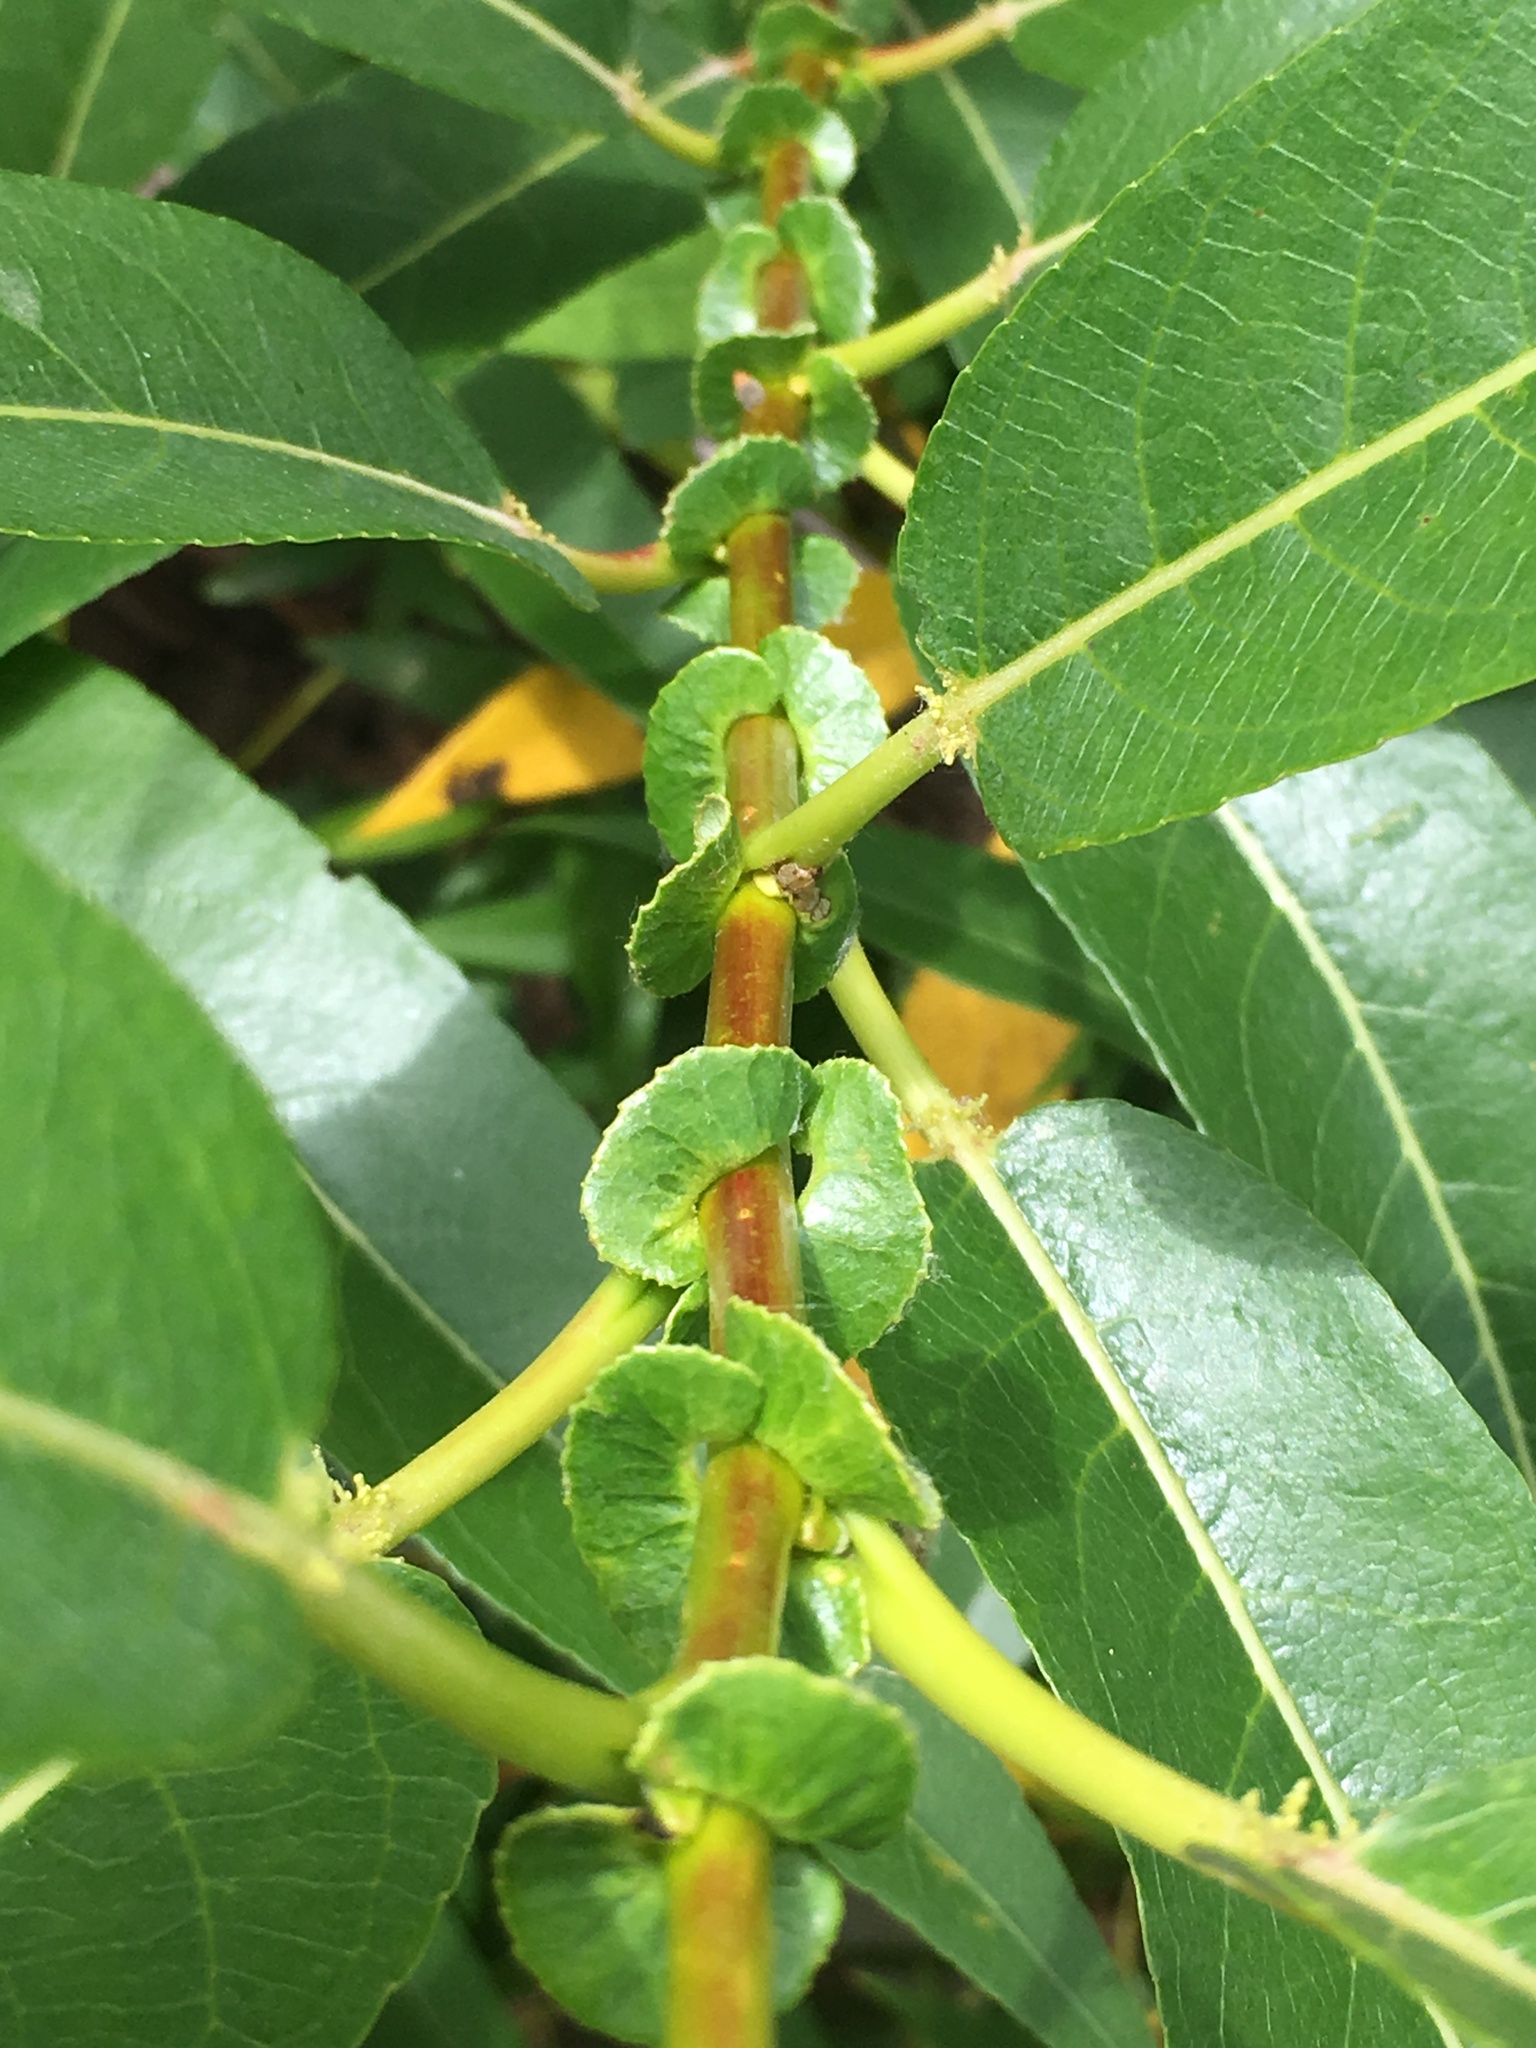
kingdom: Plantae
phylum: Tracheophyta
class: Magnoliopsida
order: Malpighiales
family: Salicaceae
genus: Salix
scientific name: Salix lucida
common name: Shining willow
